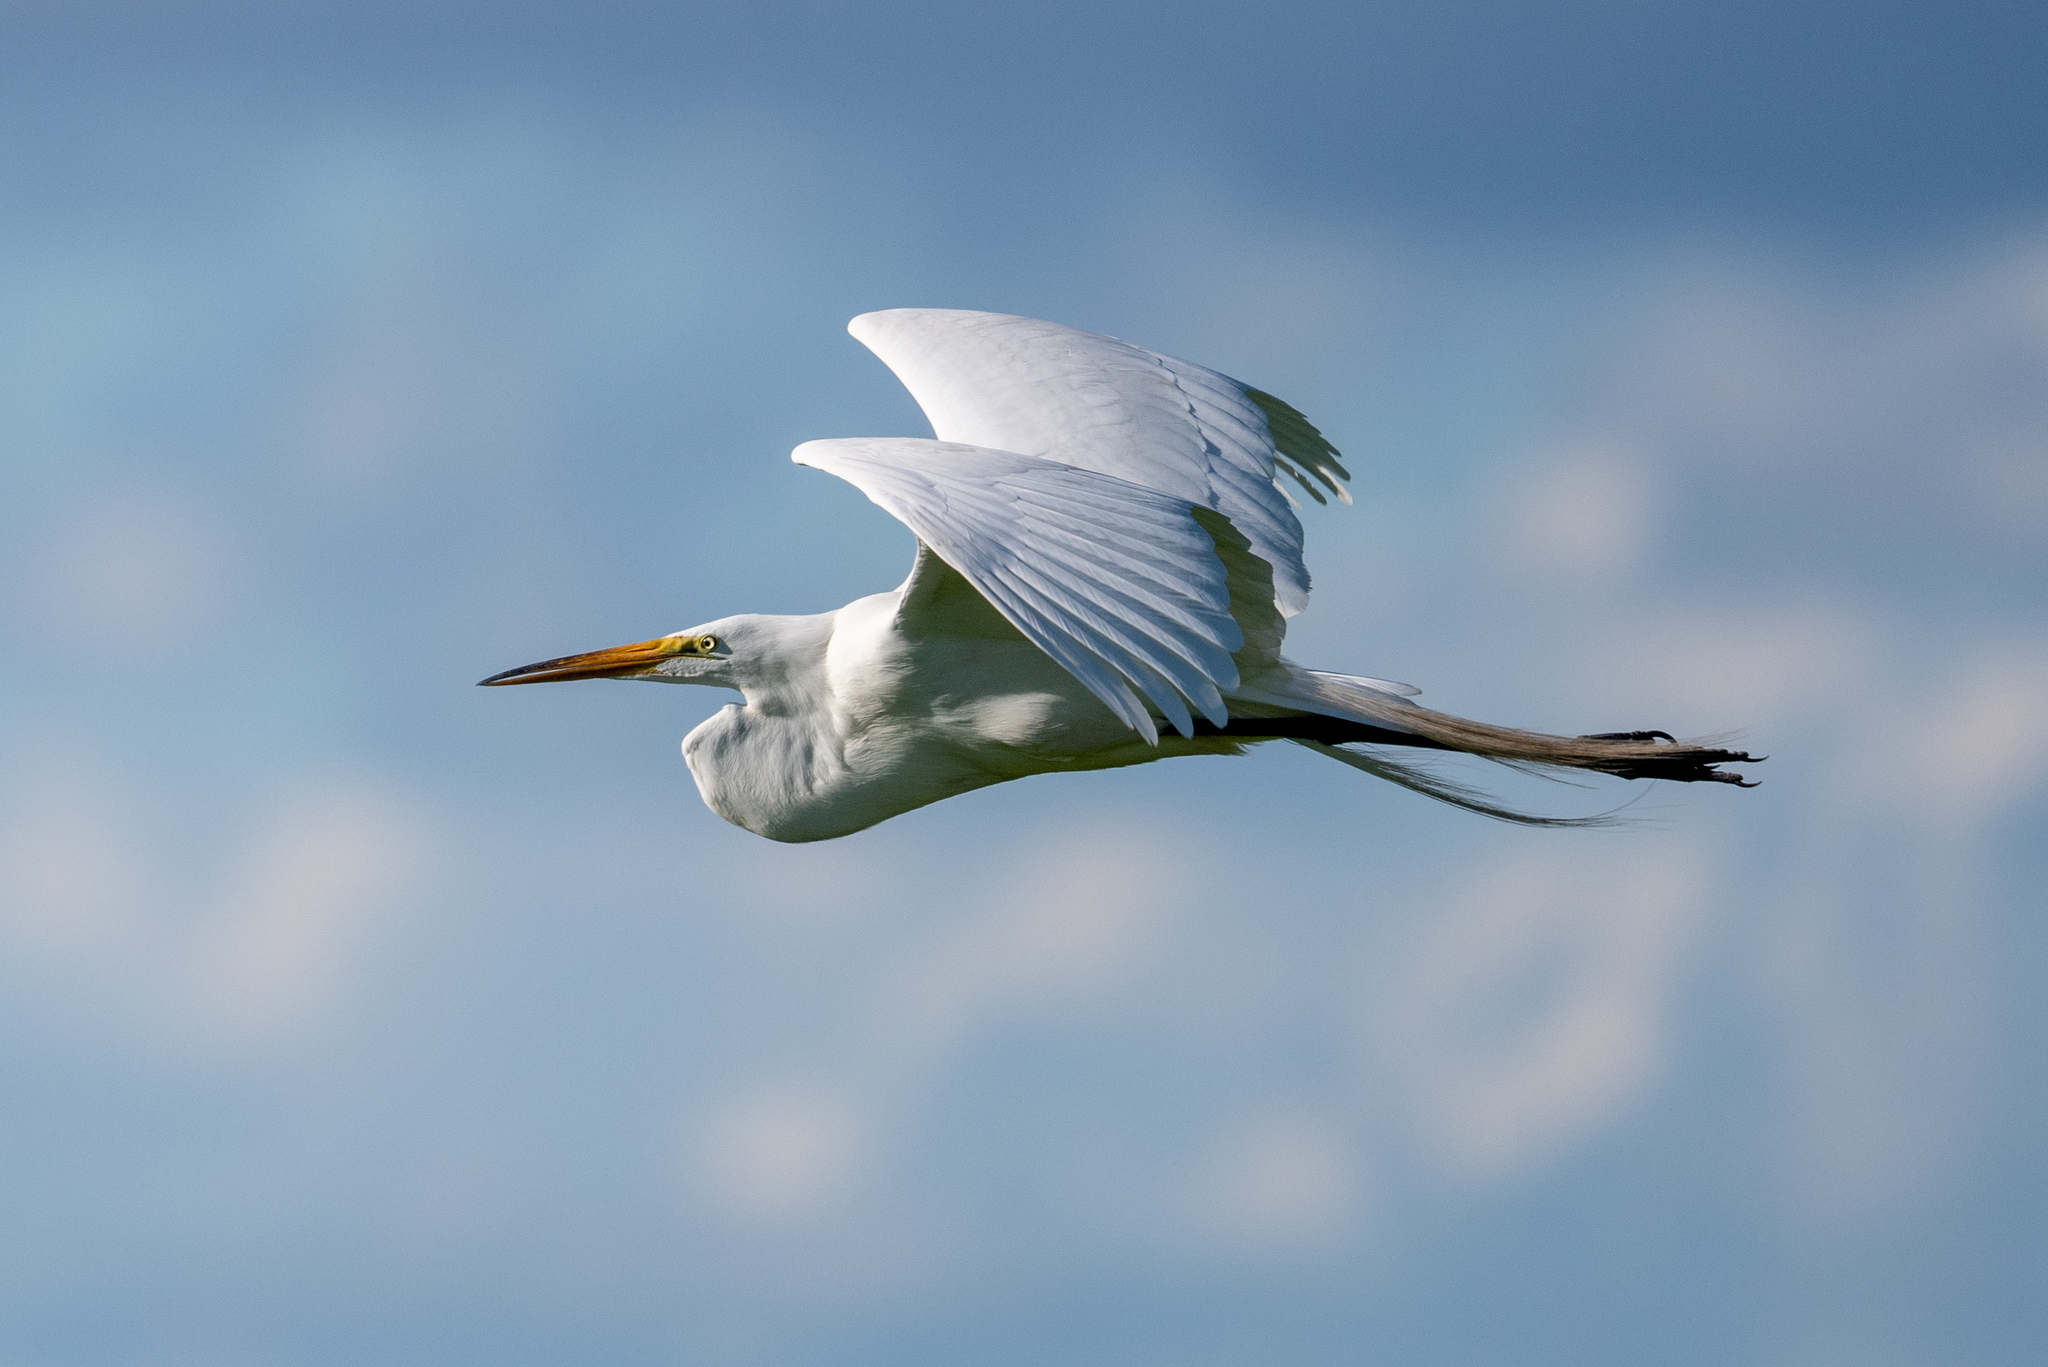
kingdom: Animalia
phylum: Chordata
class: Aves
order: Pelecaniformes
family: Ardeidae
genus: Ardea
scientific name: Ardea alba
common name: Great egret
